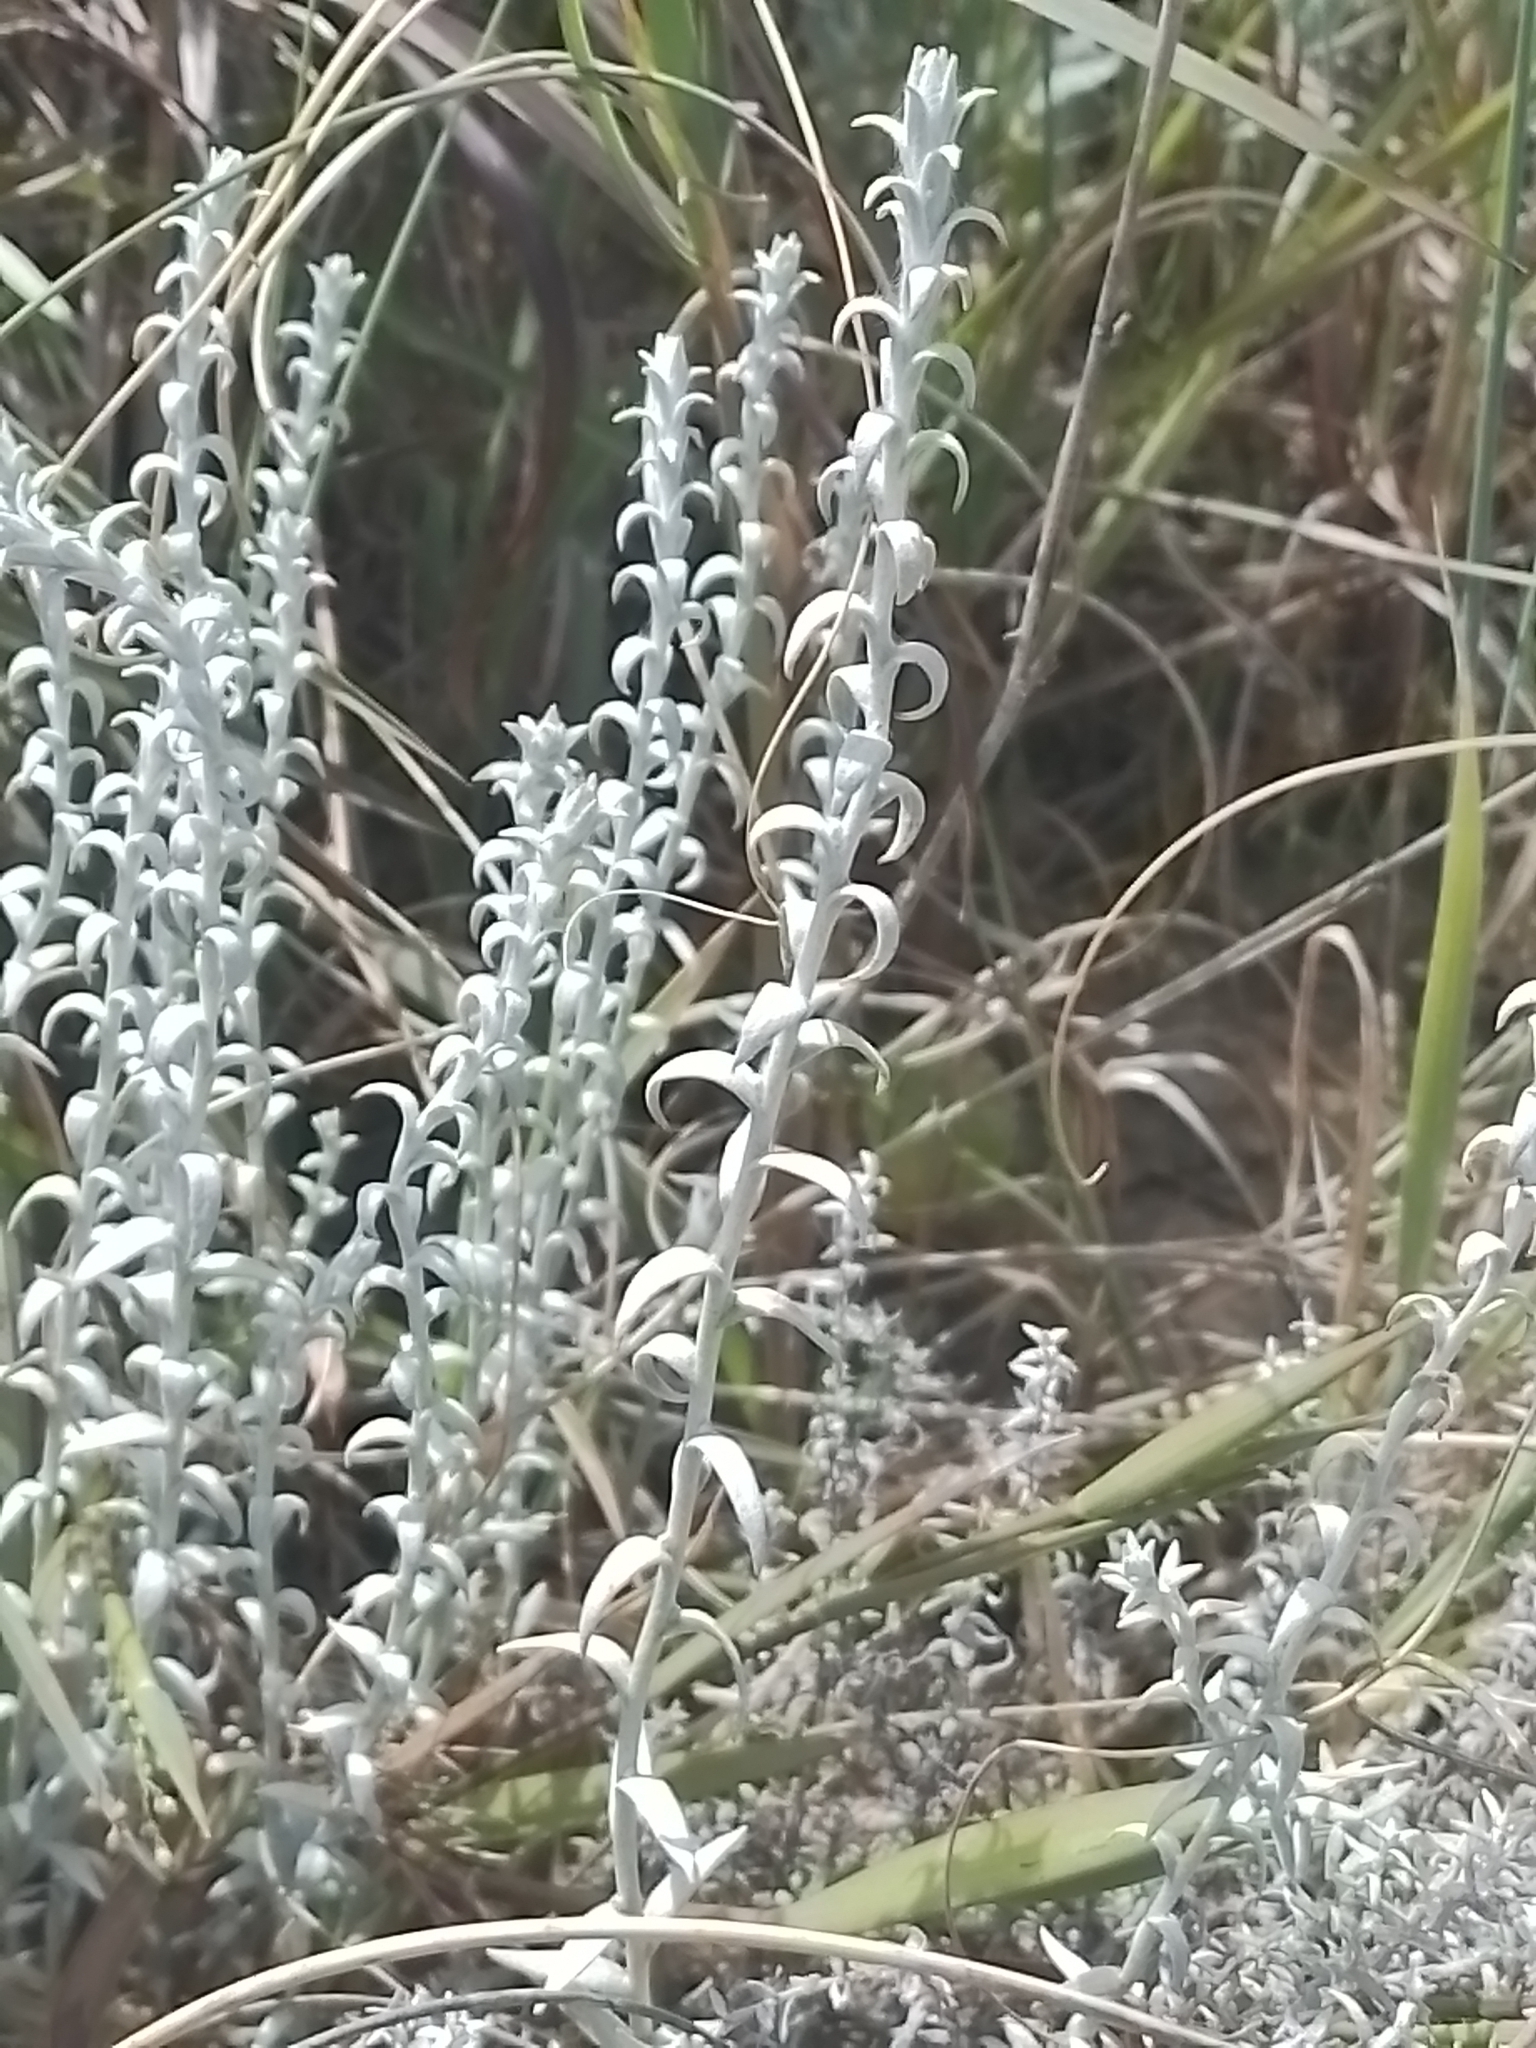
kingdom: Plantae
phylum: Tracheophyta
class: Magnoliopsida
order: Asterales
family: Asteraceae
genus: Lucilia
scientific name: Lucilia acutifolia
